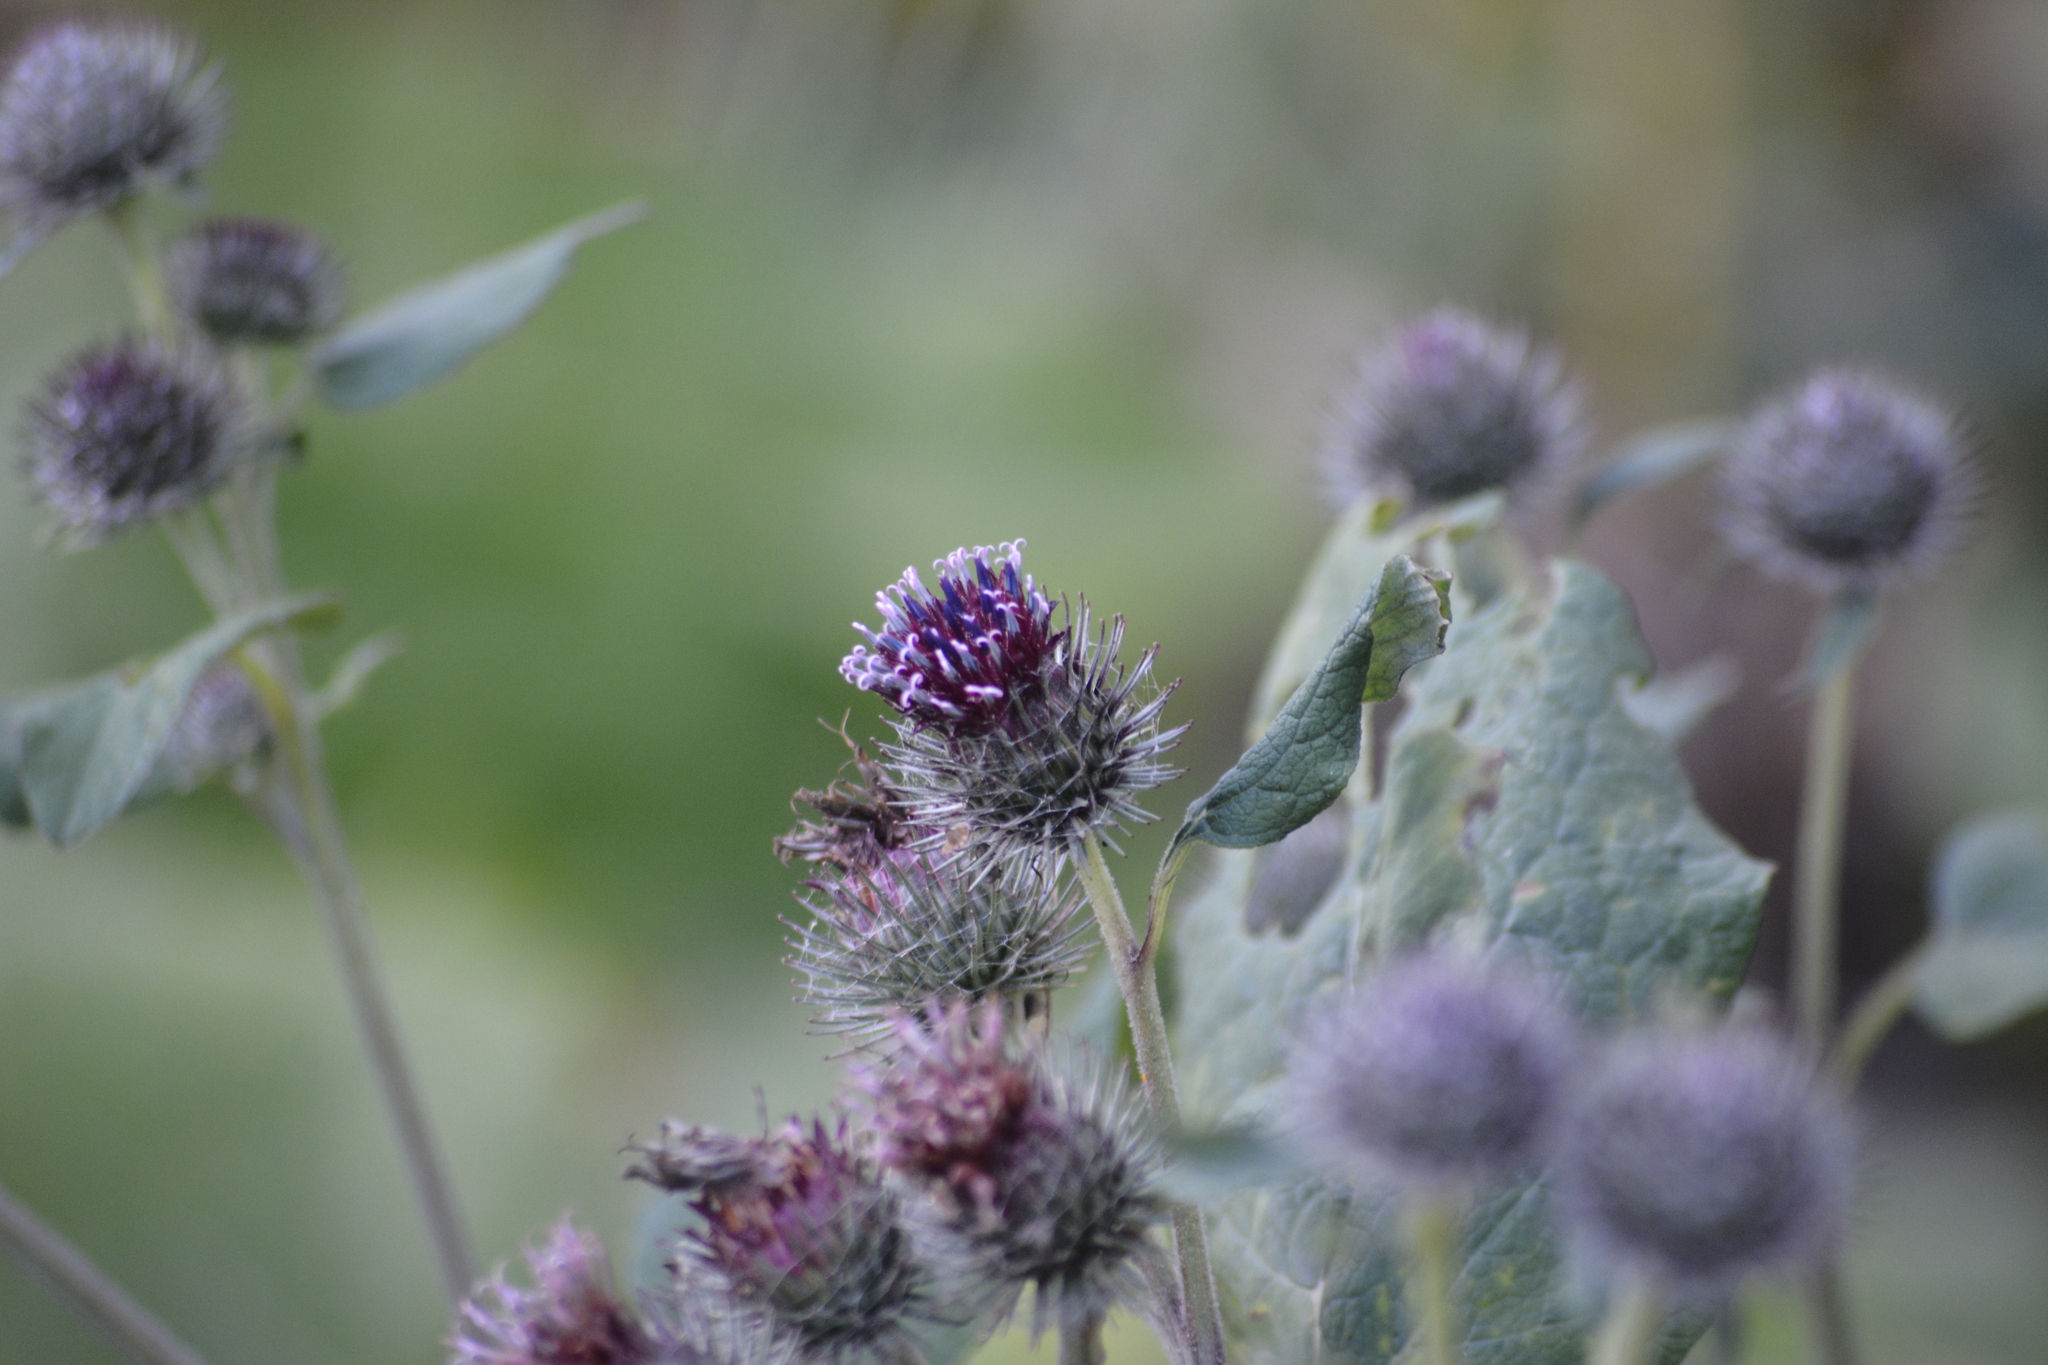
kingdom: Plantae
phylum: Tracheophyta
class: Magnoliopsida
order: Asterales
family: Asteraceae
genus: Arctium
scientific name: Arctium tomentosum
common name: Woolly burdock
